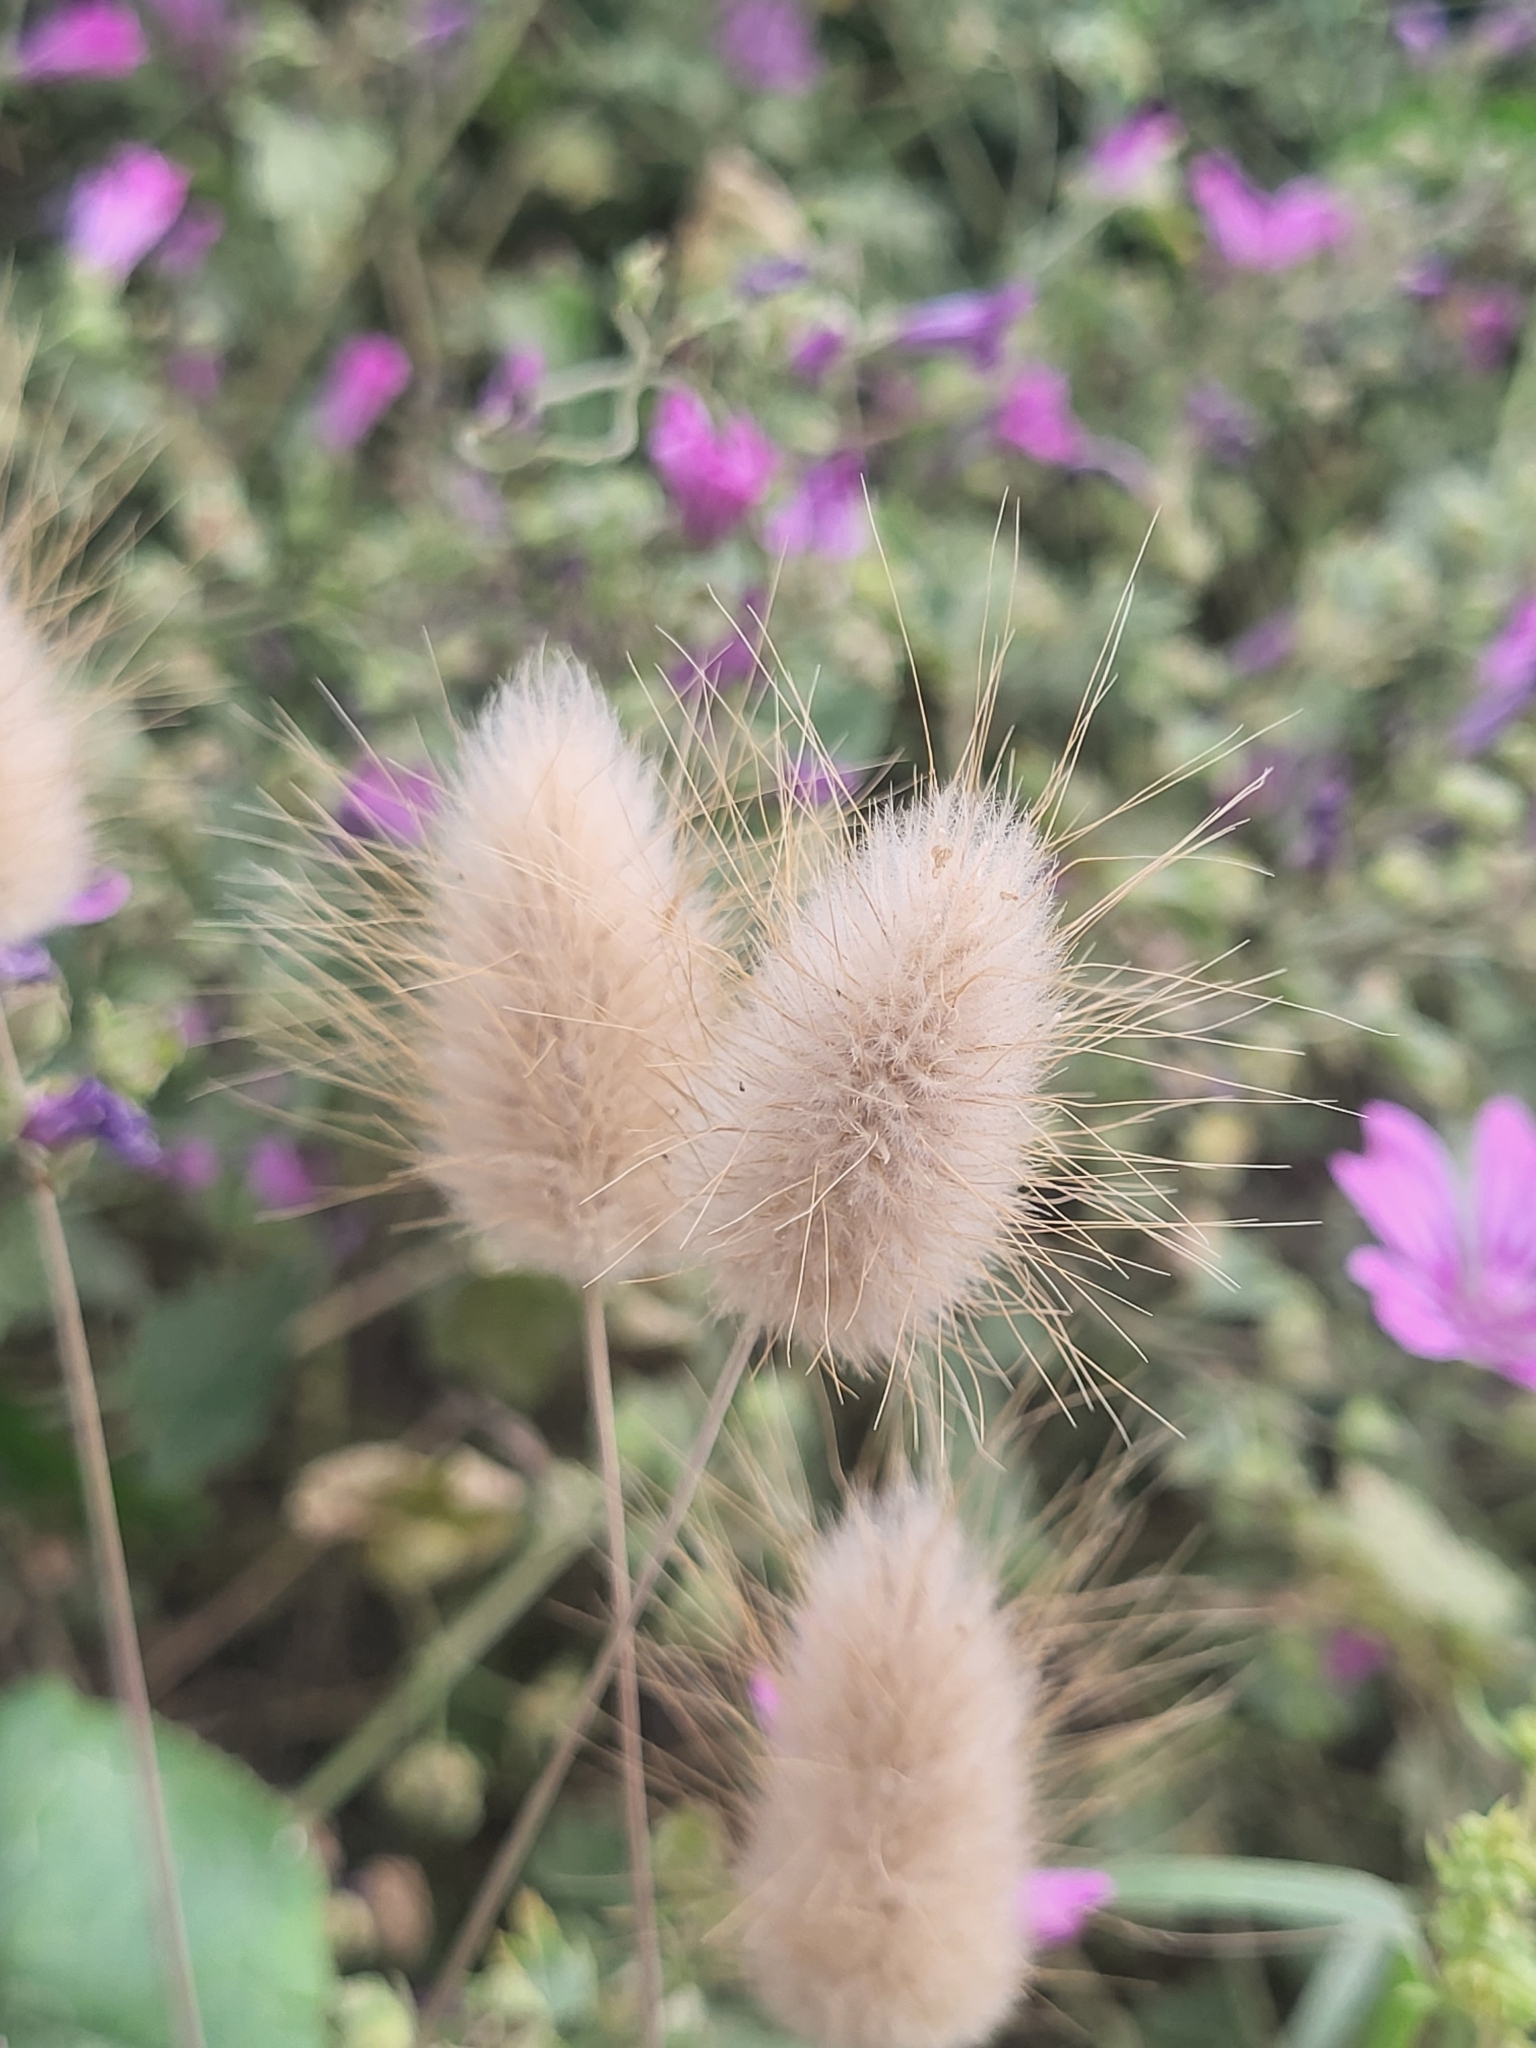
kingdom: Plantae
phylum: Tracheophyta
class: Liliopsida
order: Poales
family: Poaceae
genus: Lagurus
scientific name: Lagurus ovatus
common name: Hare's-tail
